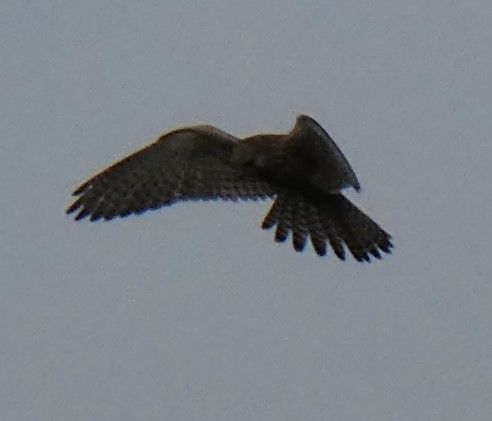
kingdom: Animalia
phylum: Chordata
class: Aves
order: Falconiformes
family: Falconidae
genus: Falco
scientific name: Falco tinnunculus
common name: Common kestrel
